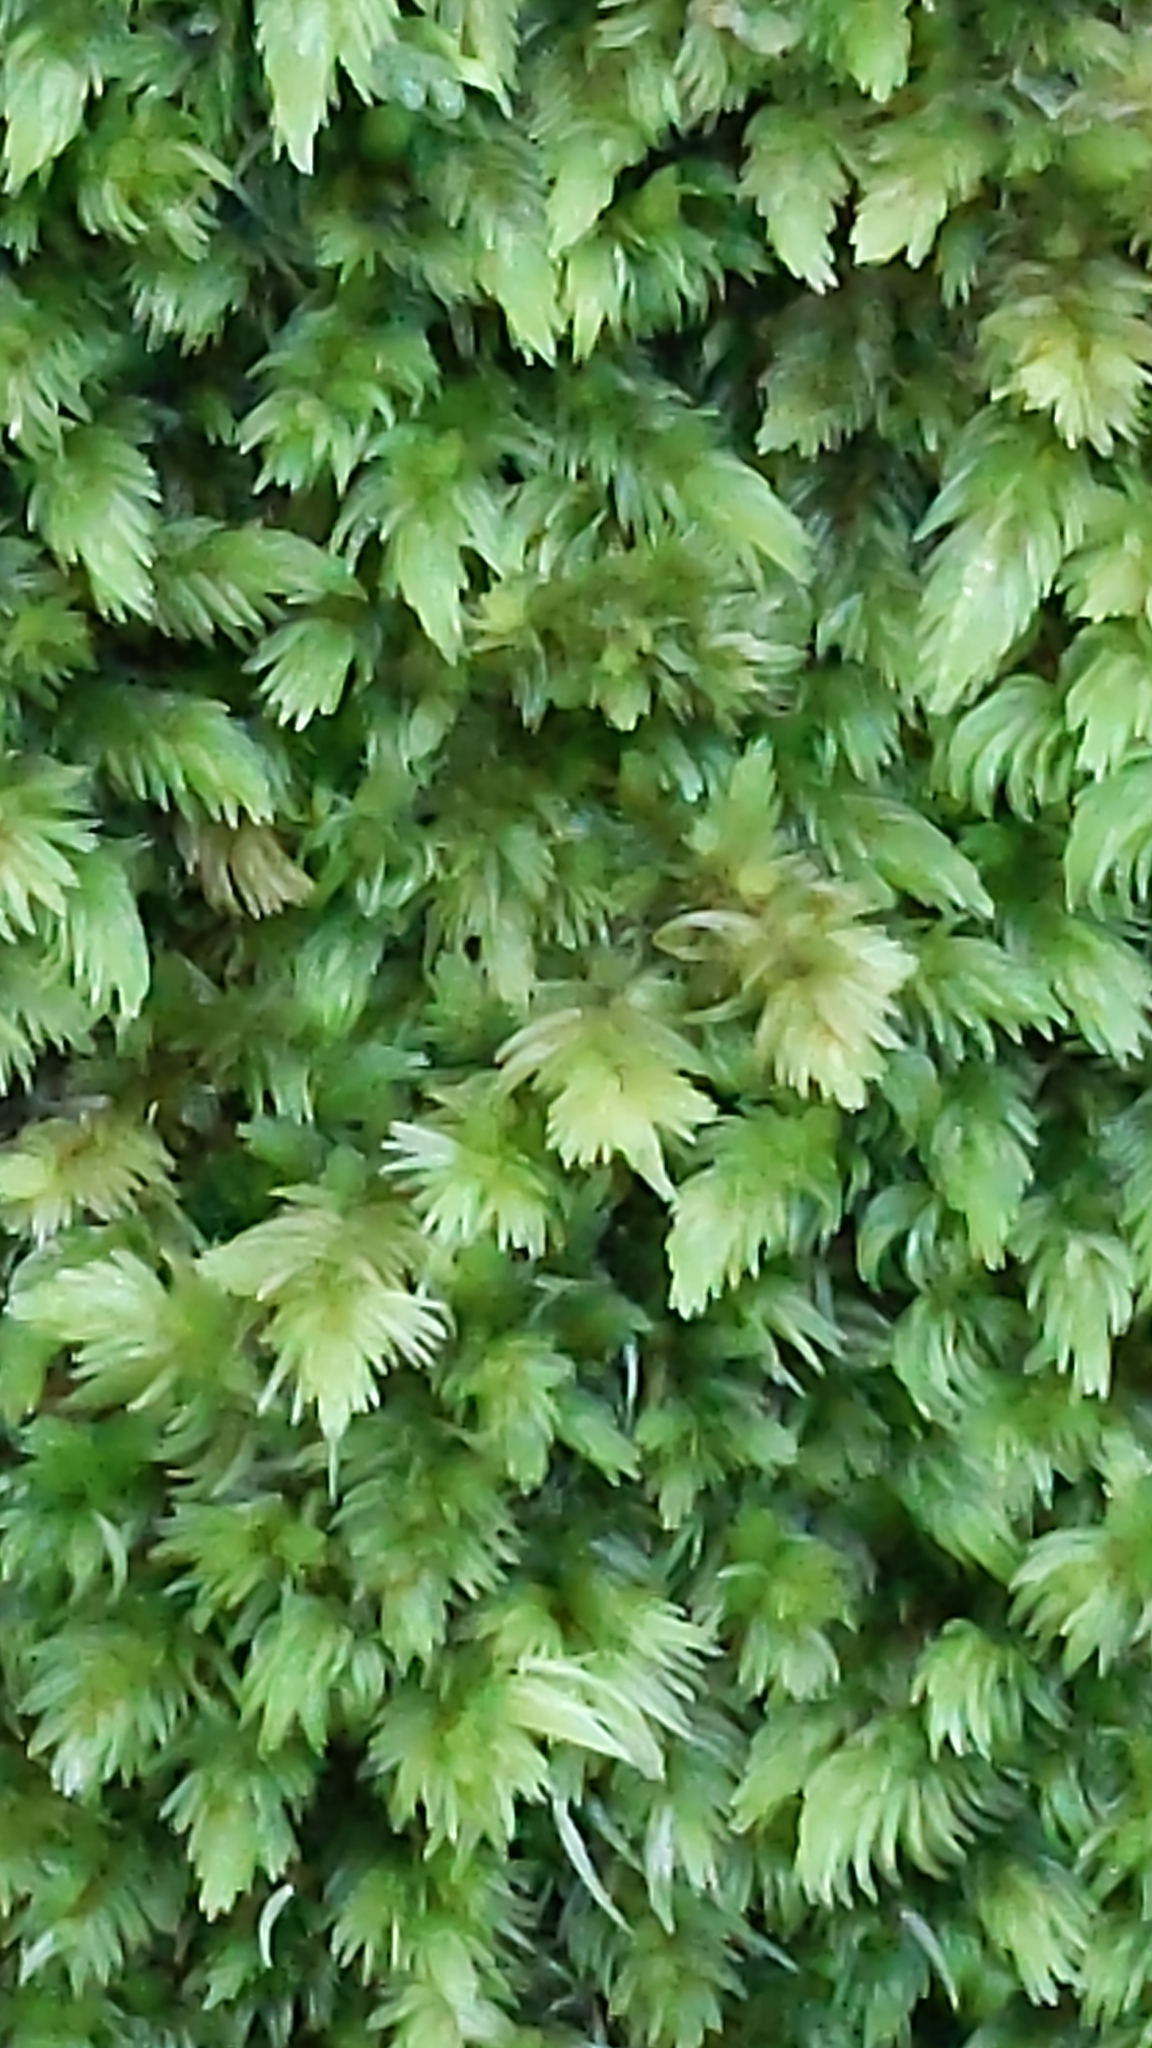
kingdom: Plantae
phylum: Bryophyta
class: Bryopsida
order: Dicranales
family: Leucobryaceae
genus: Leucobryum
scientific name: Leucobryum javense
